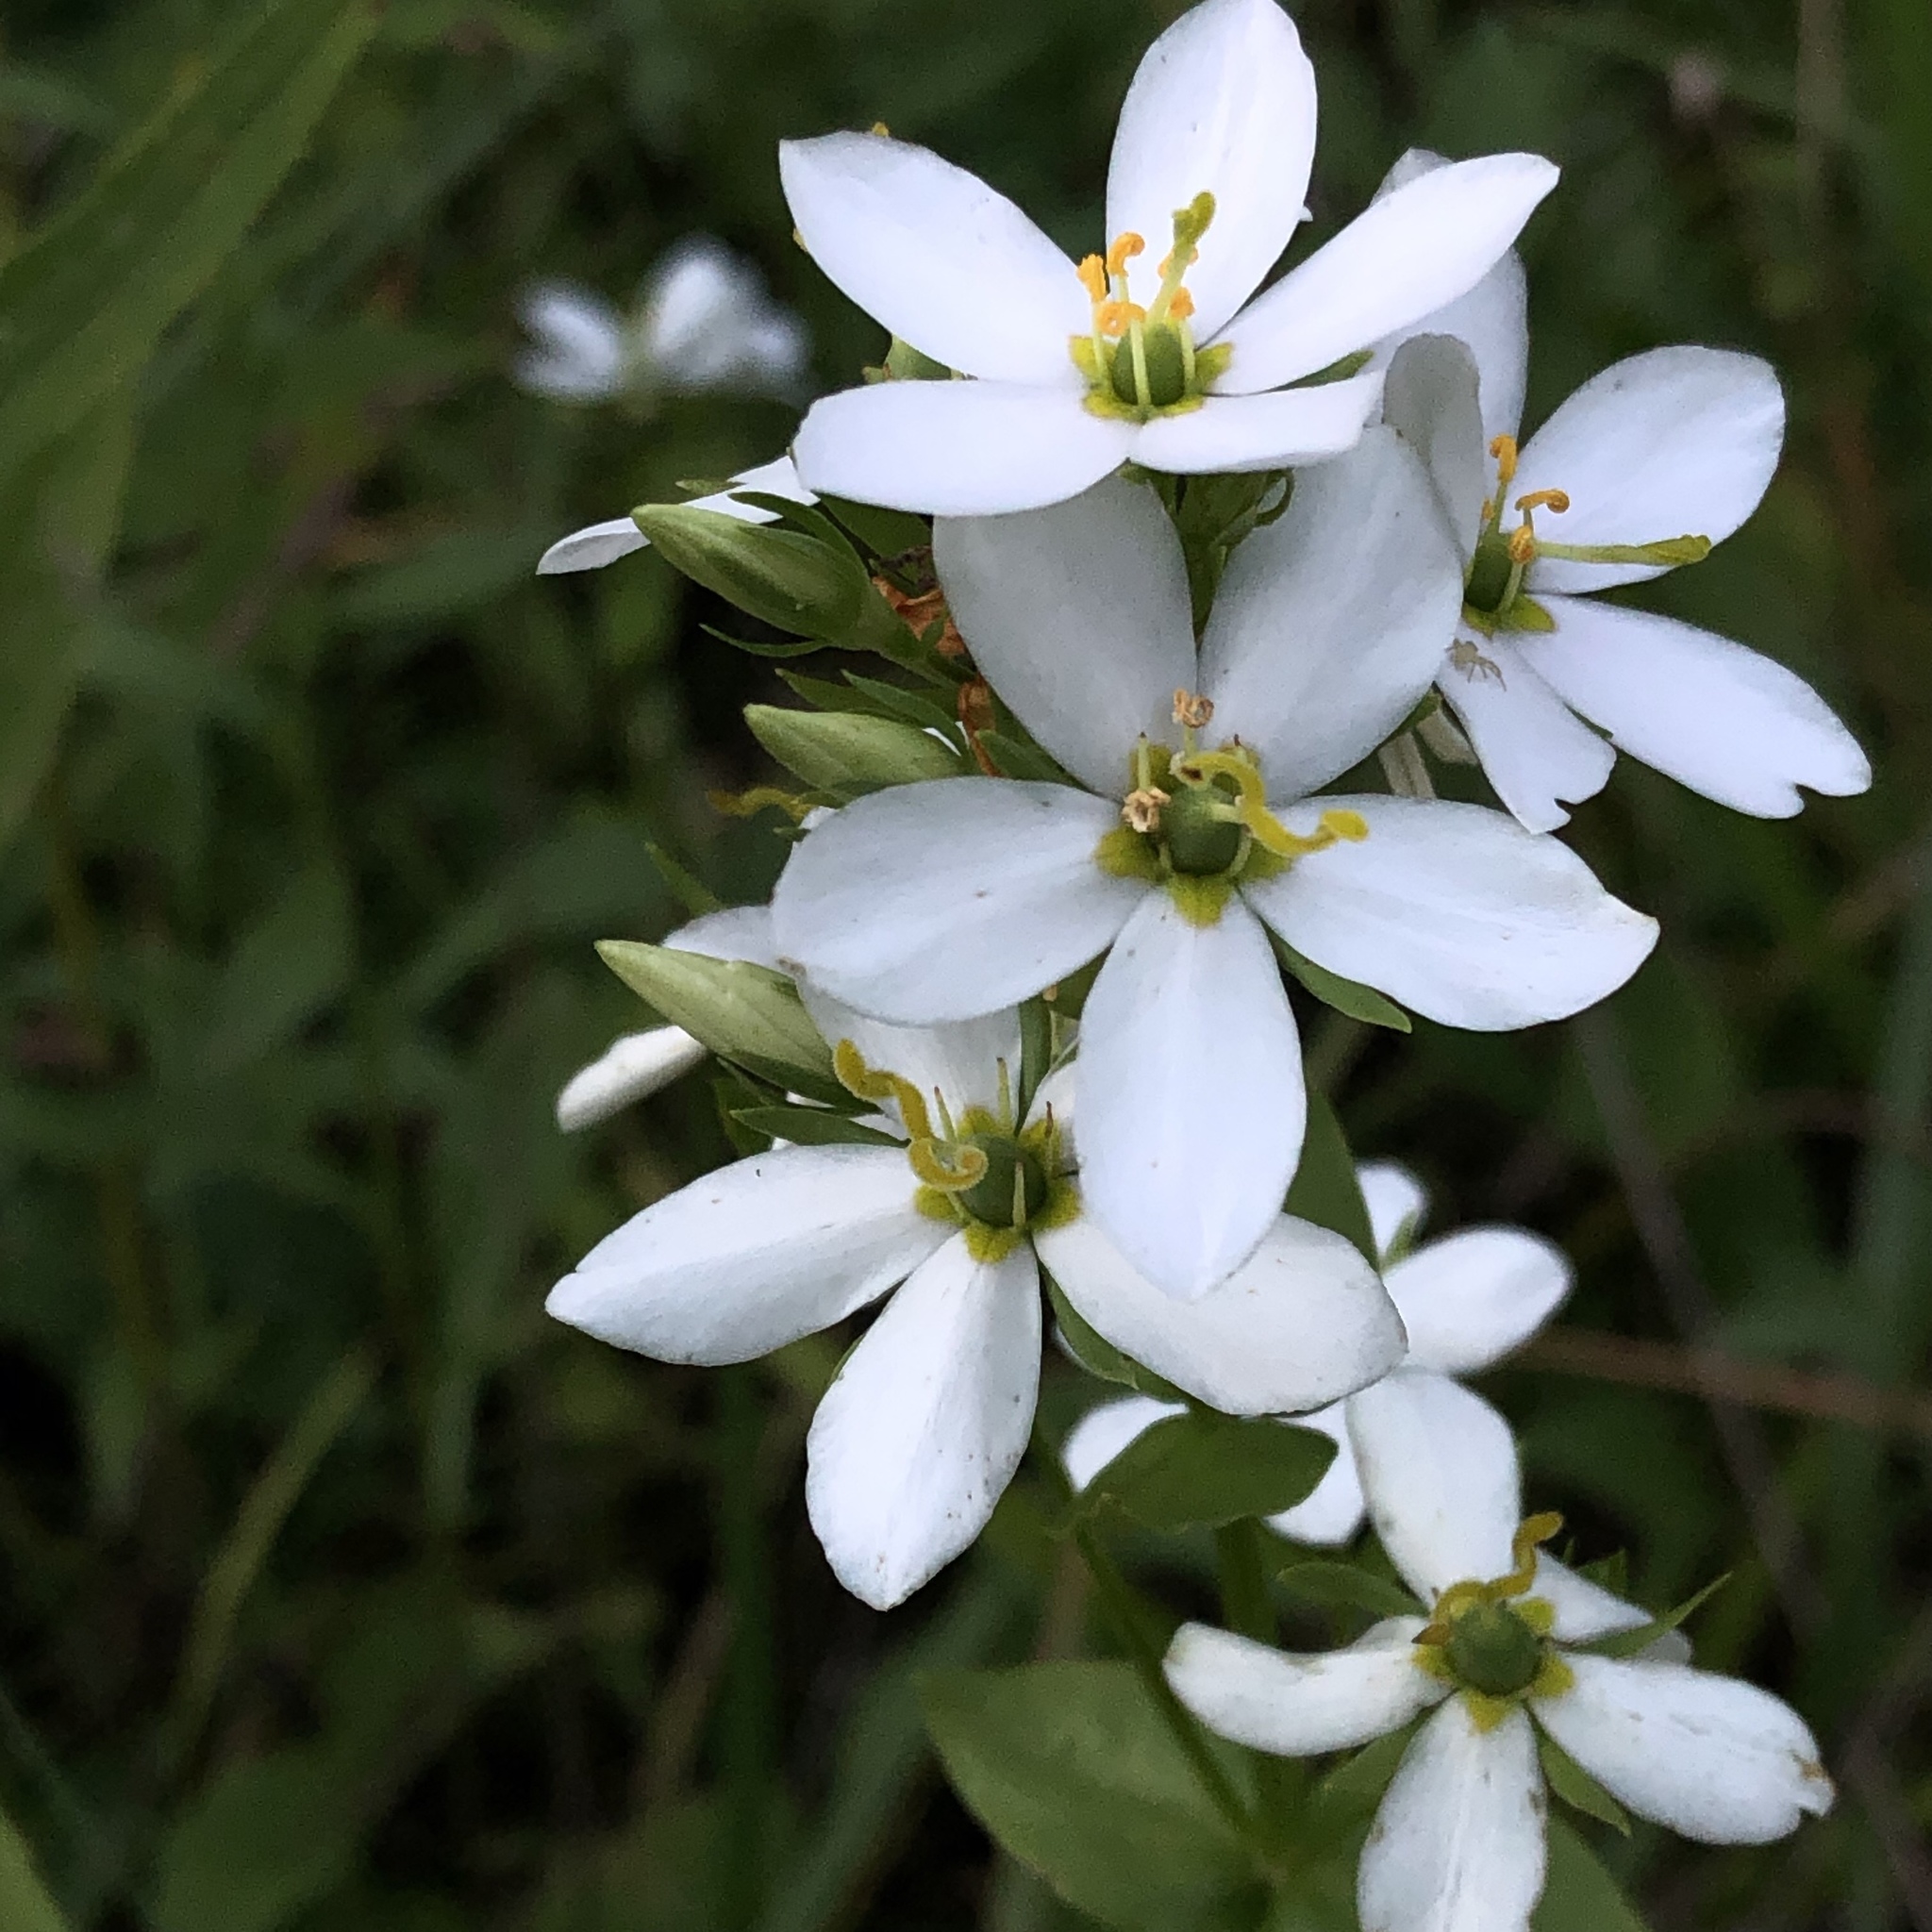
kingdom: Plantae
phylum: Tracheophyta
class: Magnoliopsida
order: Gentianales
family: Gentianaceae
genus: Sabatia
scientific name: Sabatia angularis
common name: Rose-pink
